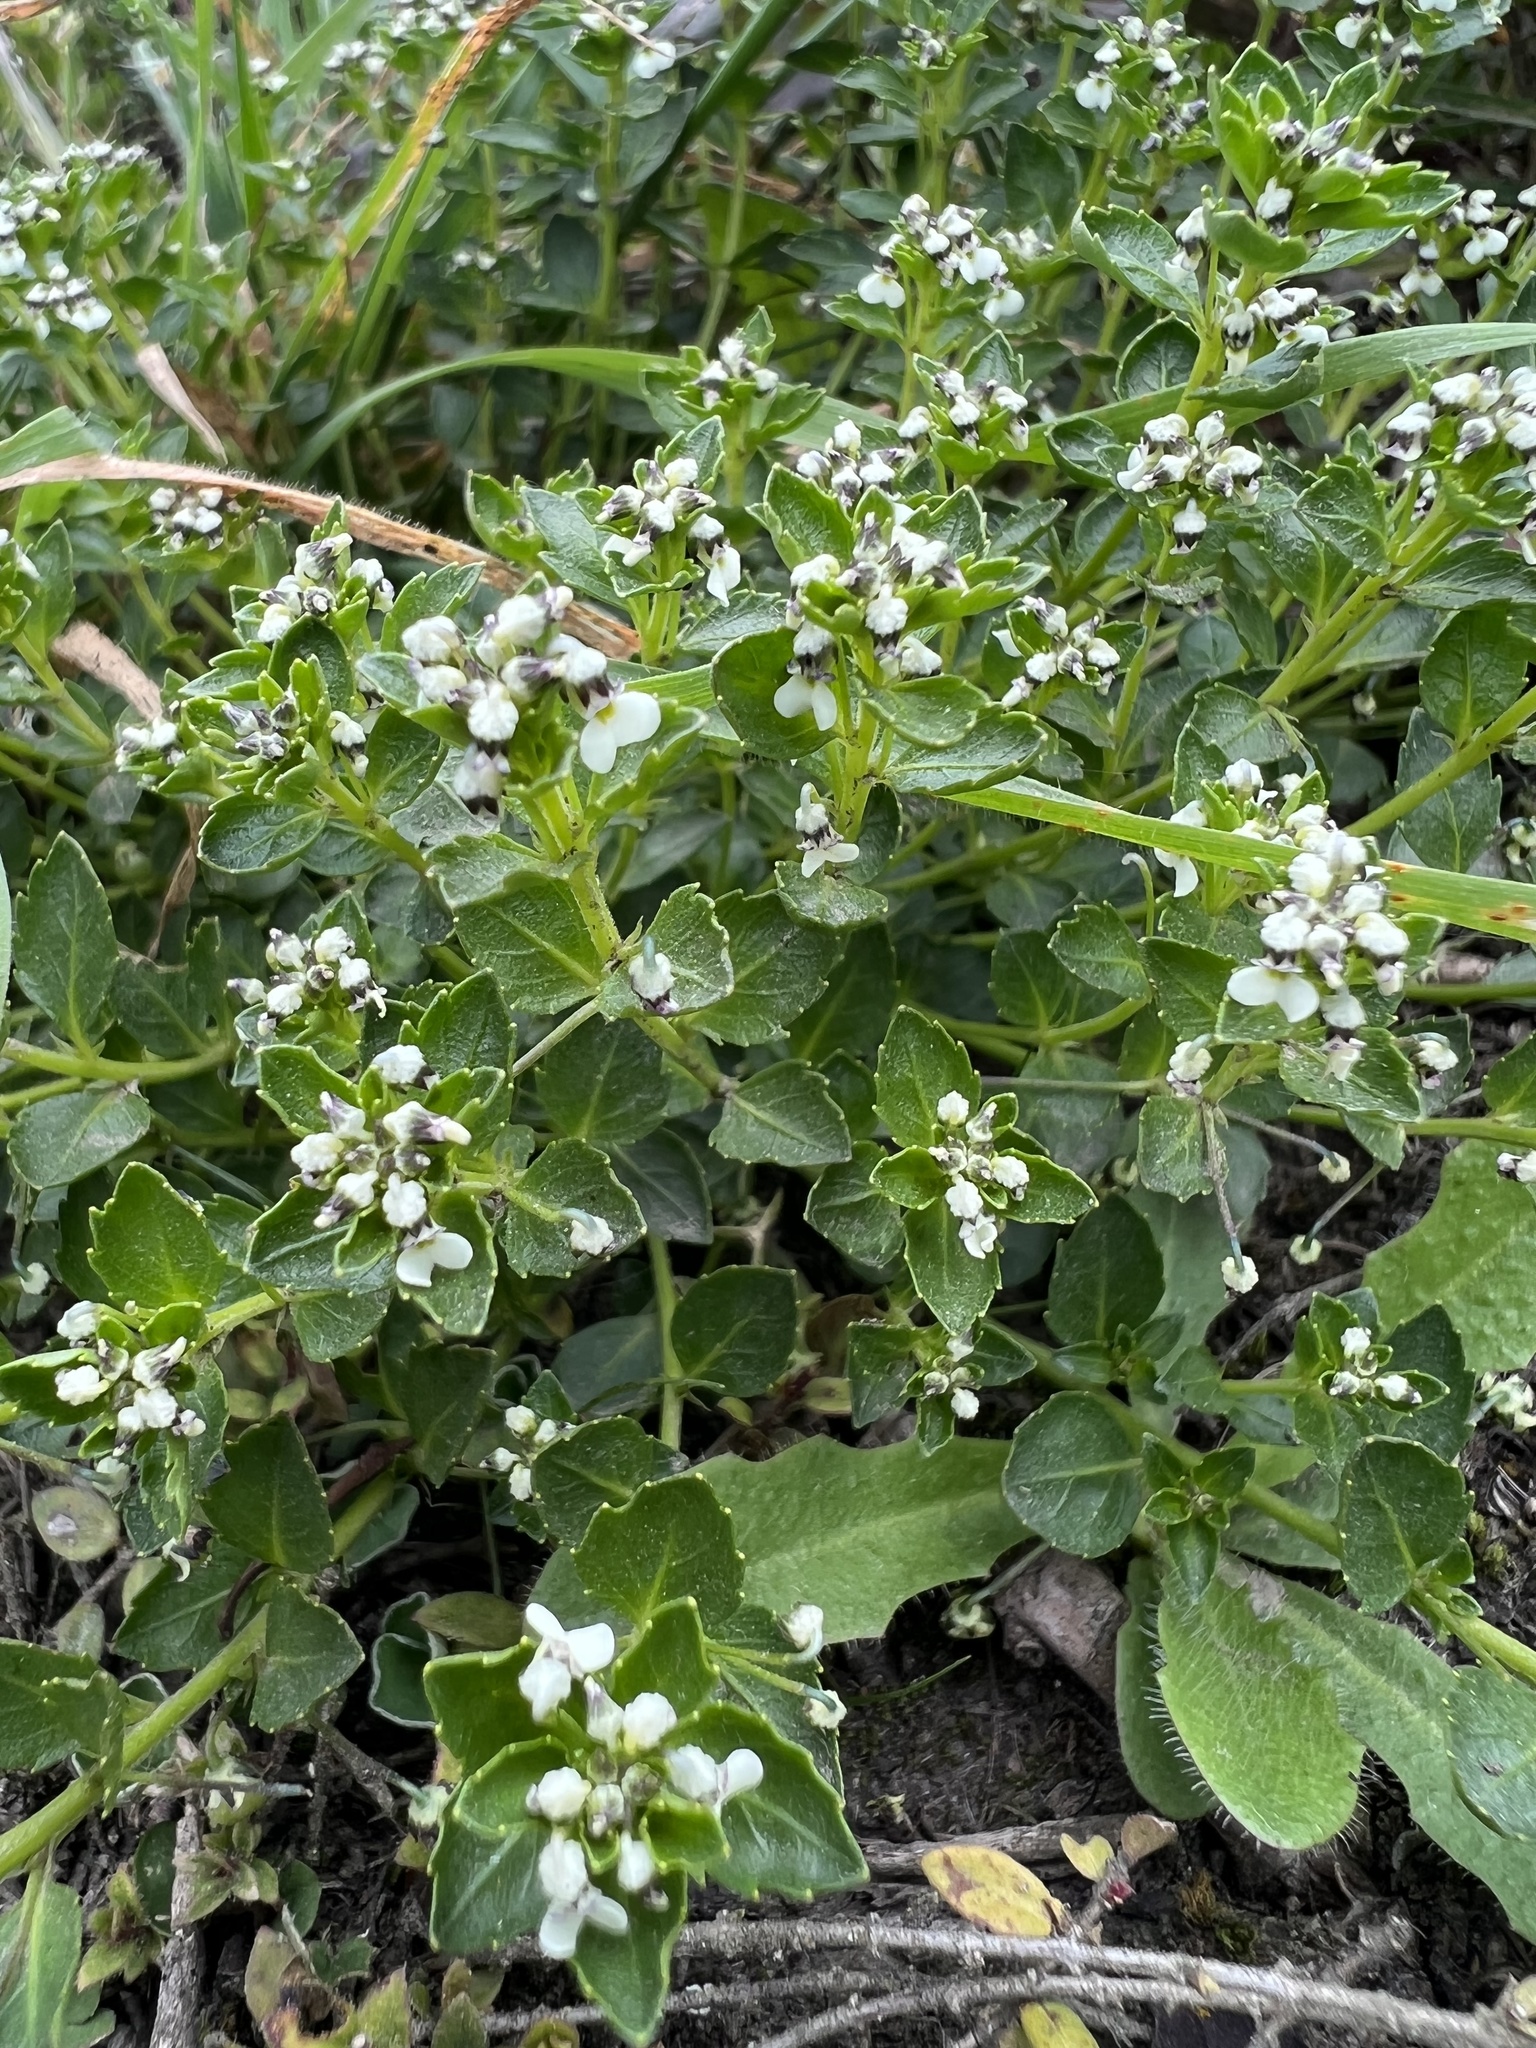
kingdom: Plantae
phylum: Tracheophyta
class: Magnoliopsida
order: Malpighiales
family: Violaceae
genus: Pombalia
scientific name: Pombalia parviflora
